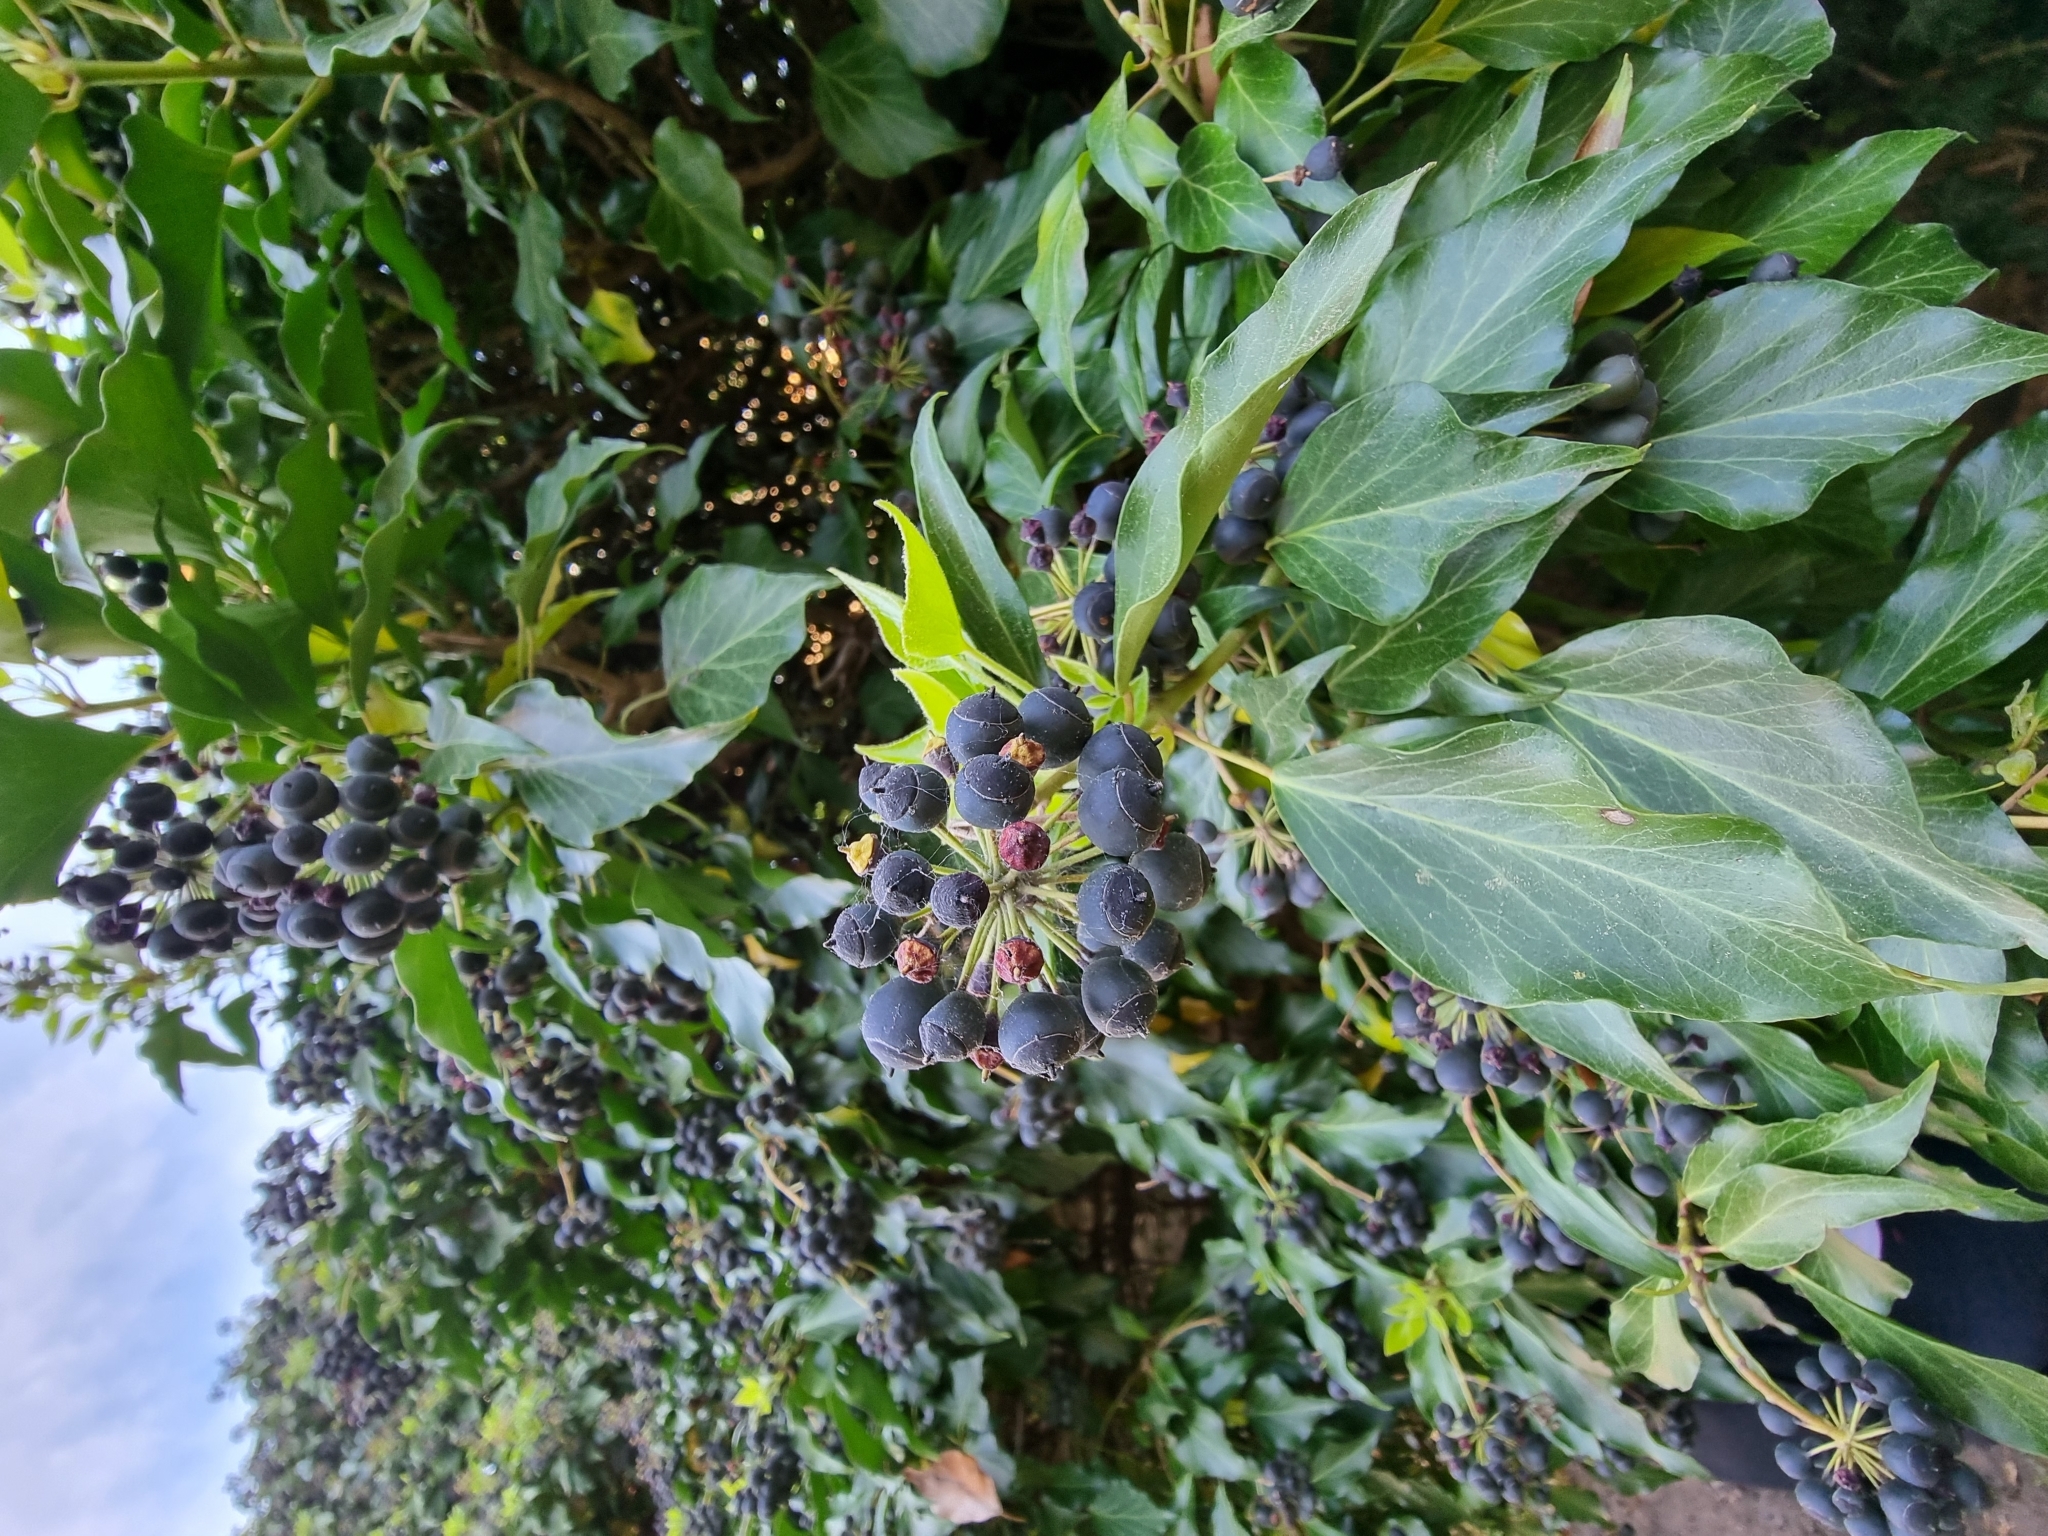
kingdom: Plantae
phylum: Tracheophyta
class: Magnoliopsida
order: Apiales
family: Araliaceae
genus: Hedera
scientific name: Hedera helix
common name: Ivy
